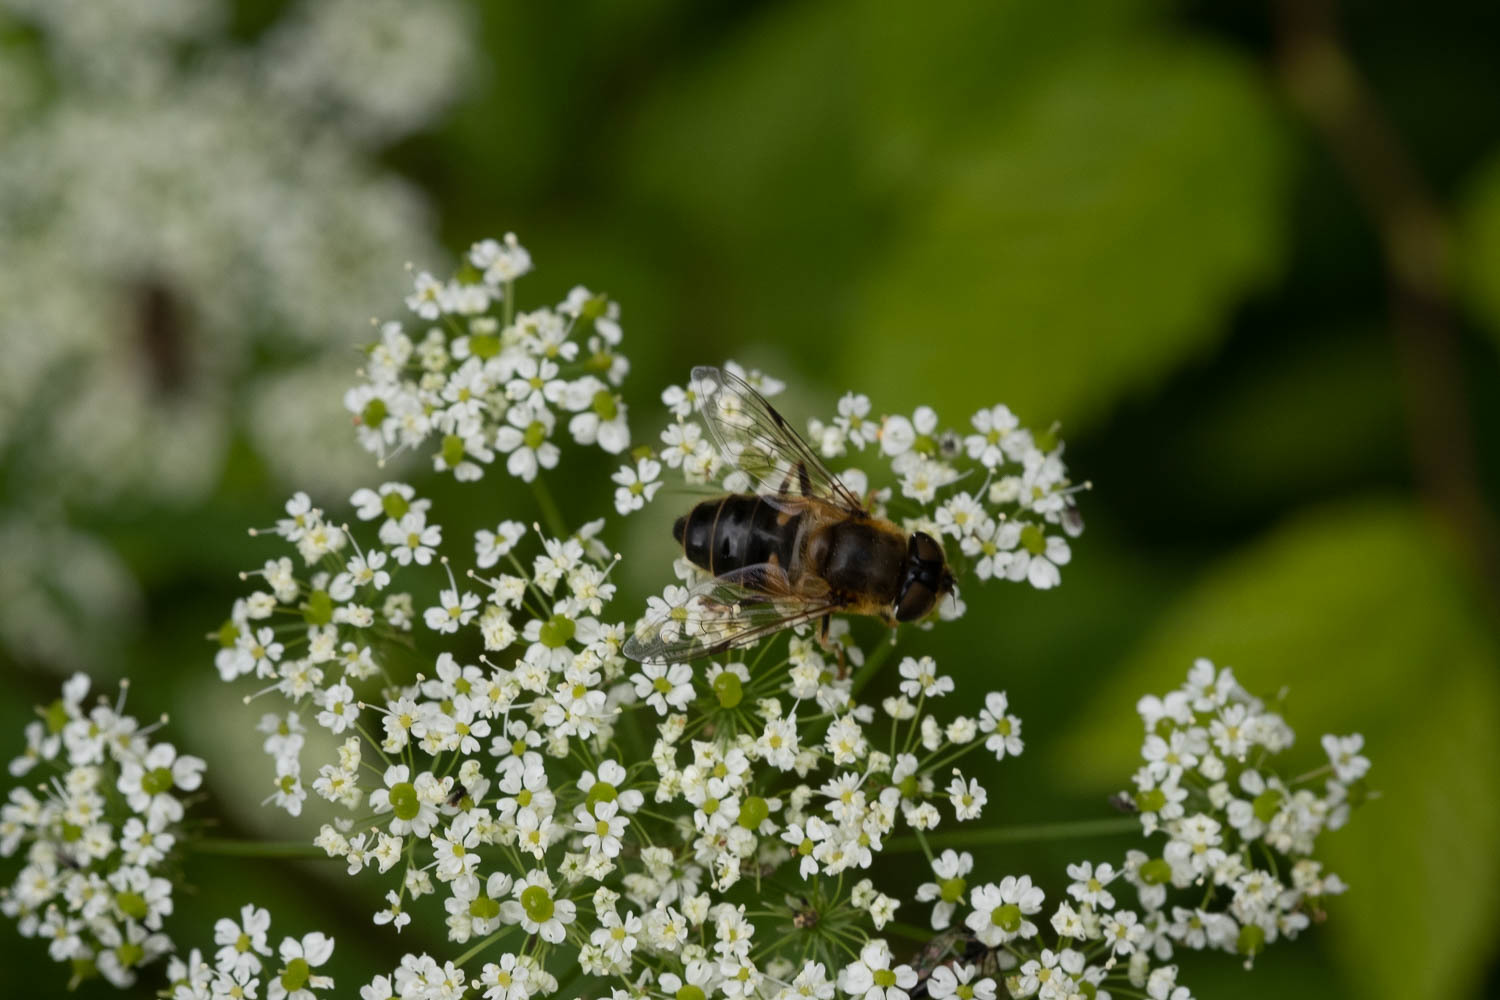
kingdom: Animalia
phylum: Arthropoda
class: Insecta
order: Diptera
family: Syrphidae
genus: Eristalis
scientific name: Eristalis pertinax
